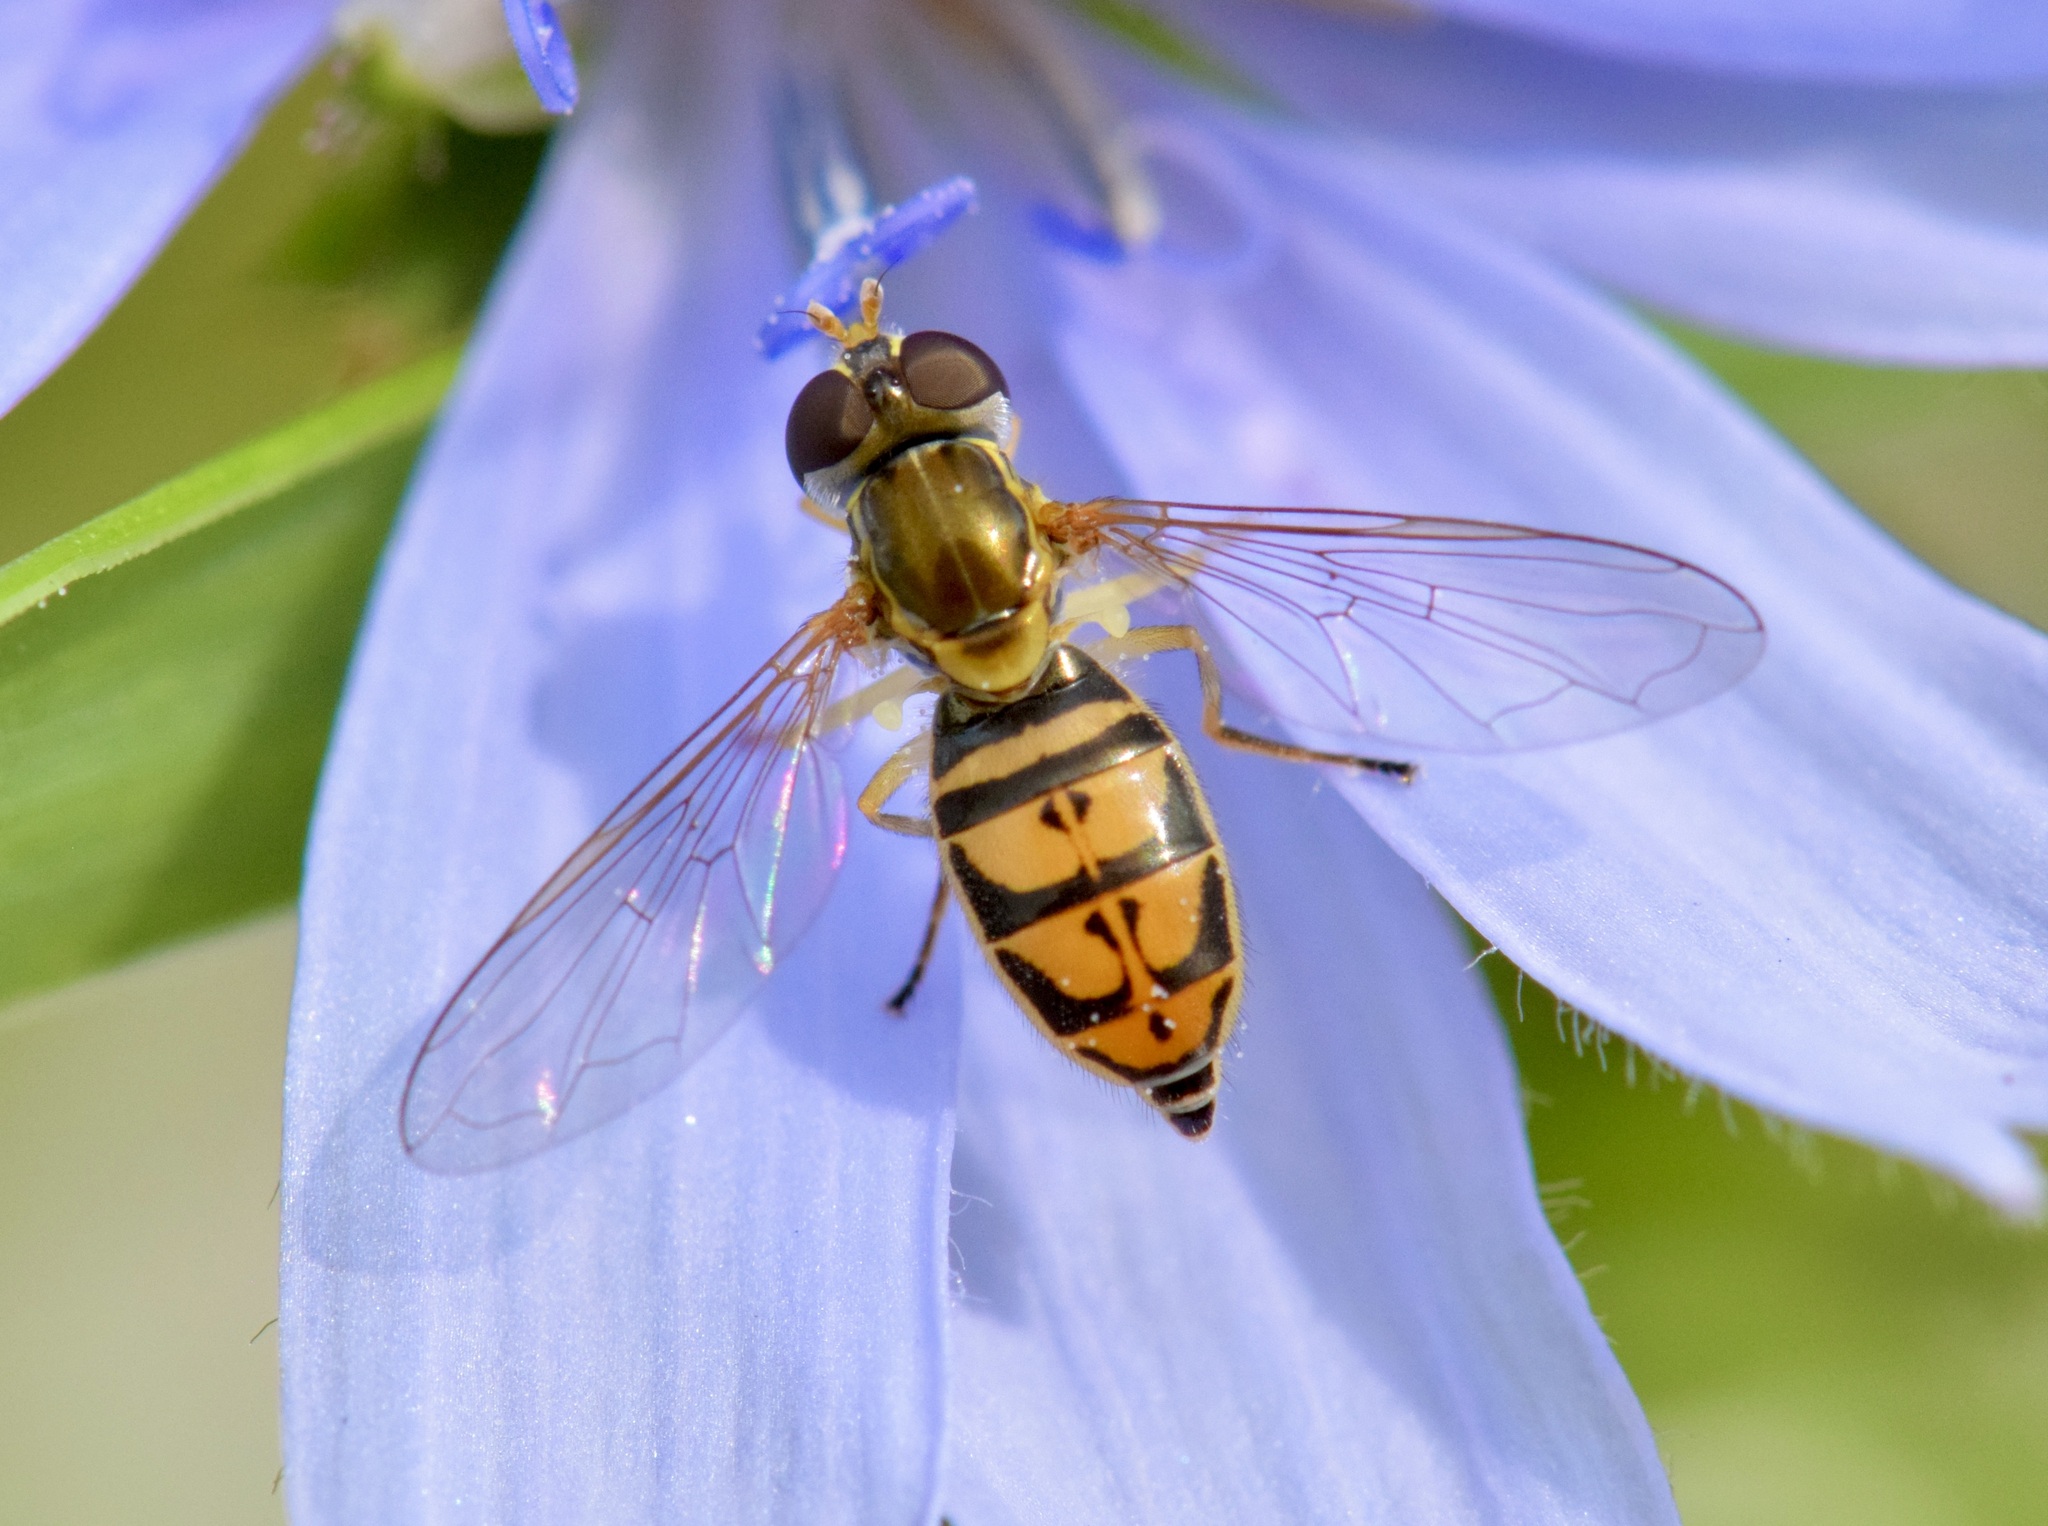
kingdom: Animalia
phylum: Arthropoda
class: Insecta
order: Diptera
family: Syrphidae
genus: Toxomerus
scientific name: Toxomerus marginatus
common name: Syrphid fly
